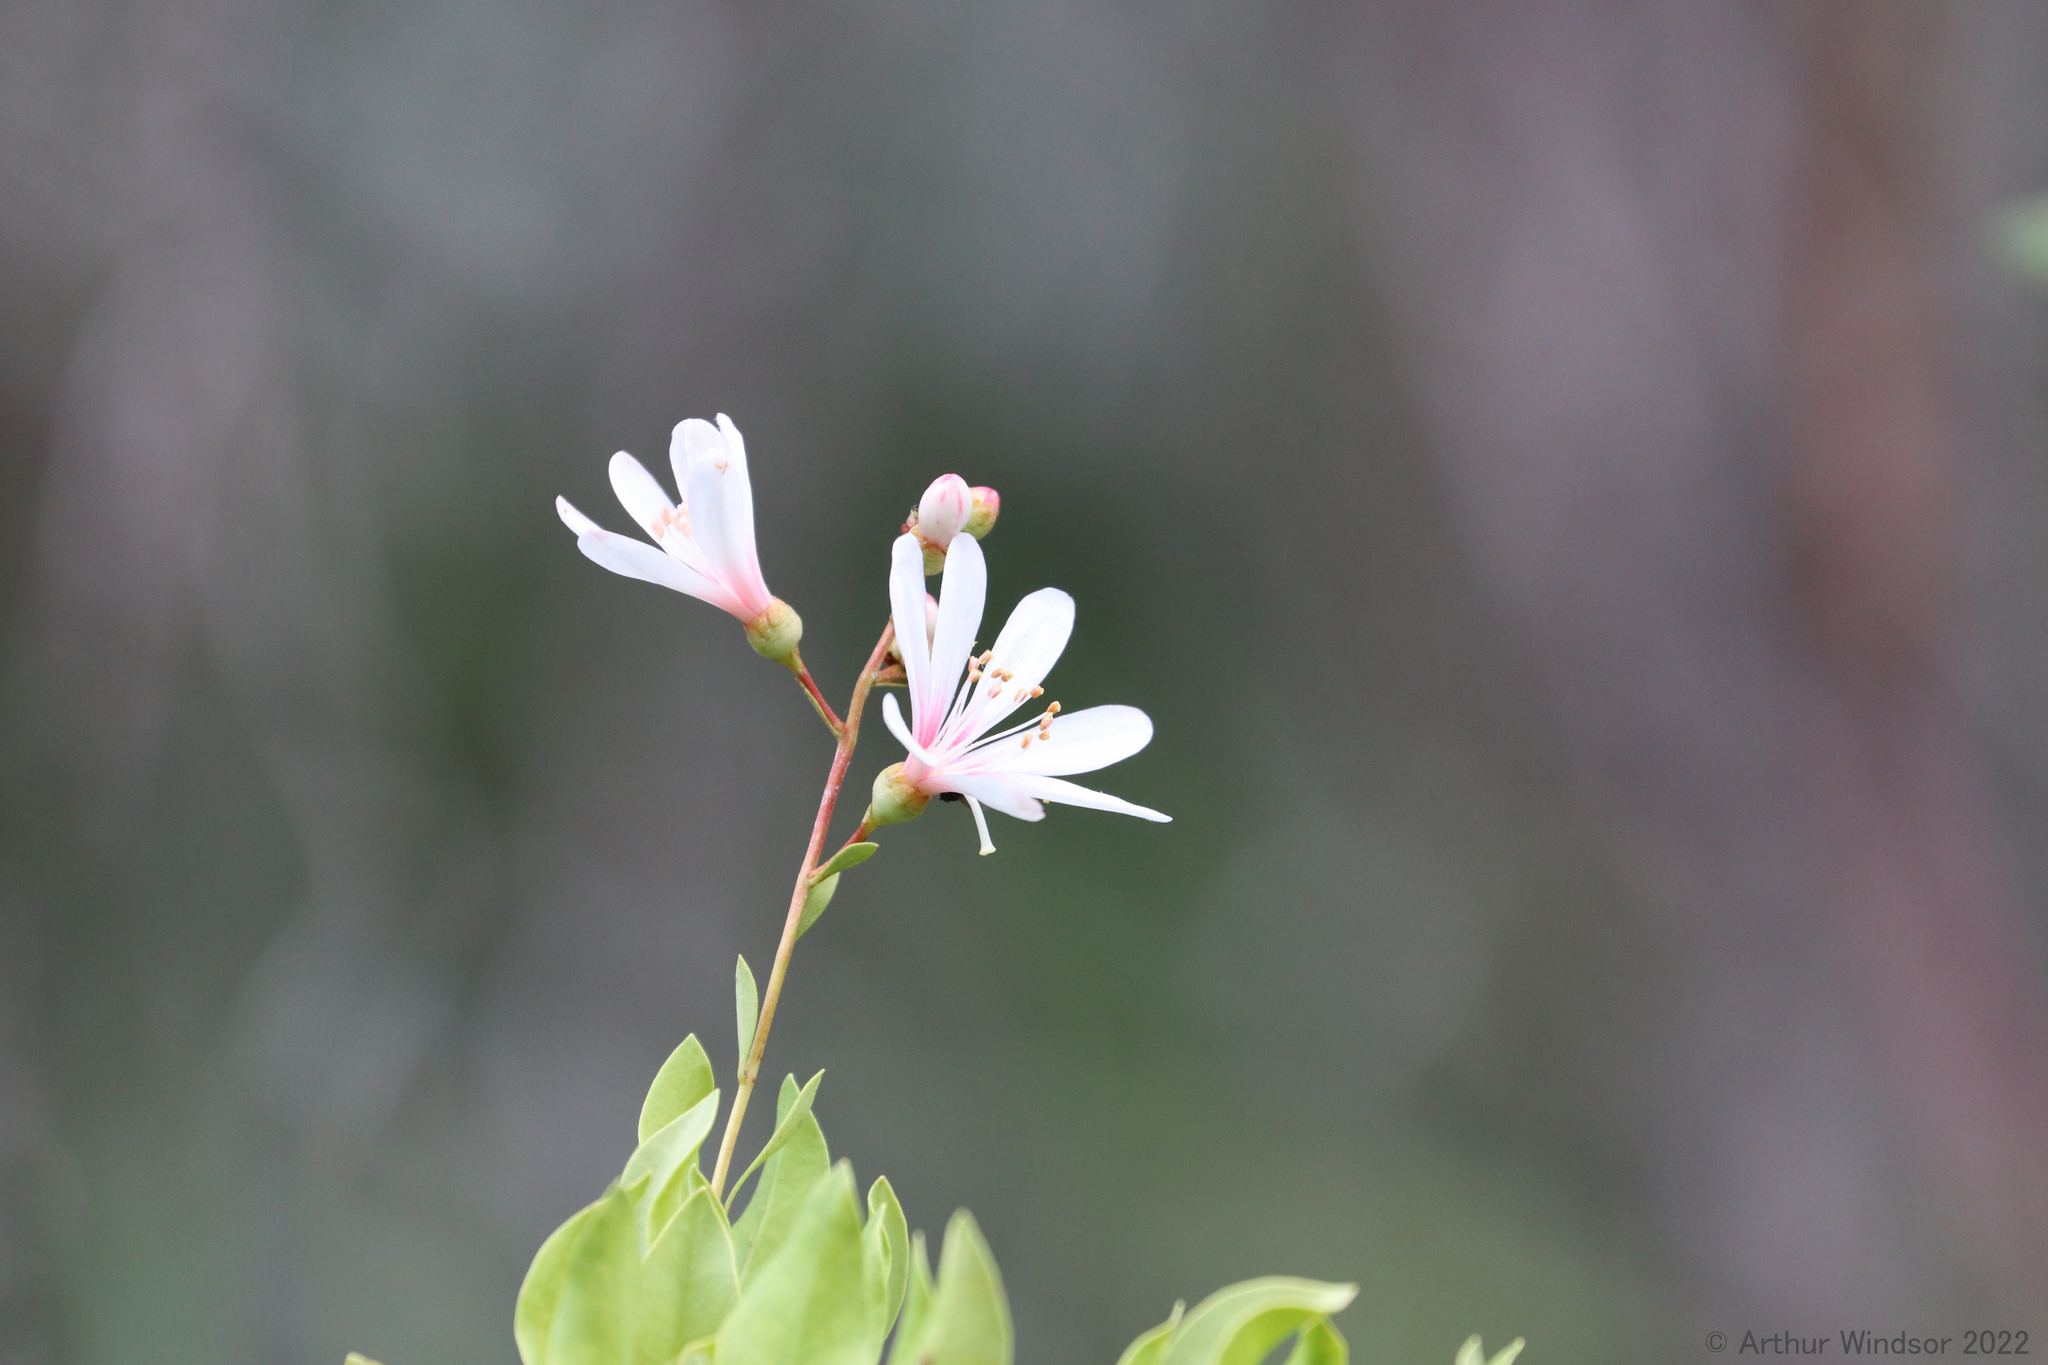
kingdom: Plantae
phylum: Tracheophyta
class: Magnoliopsida
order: Ericales
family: Ericaceae
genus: Bejaria
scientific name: Bejaria racemosa
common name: Tarflower
